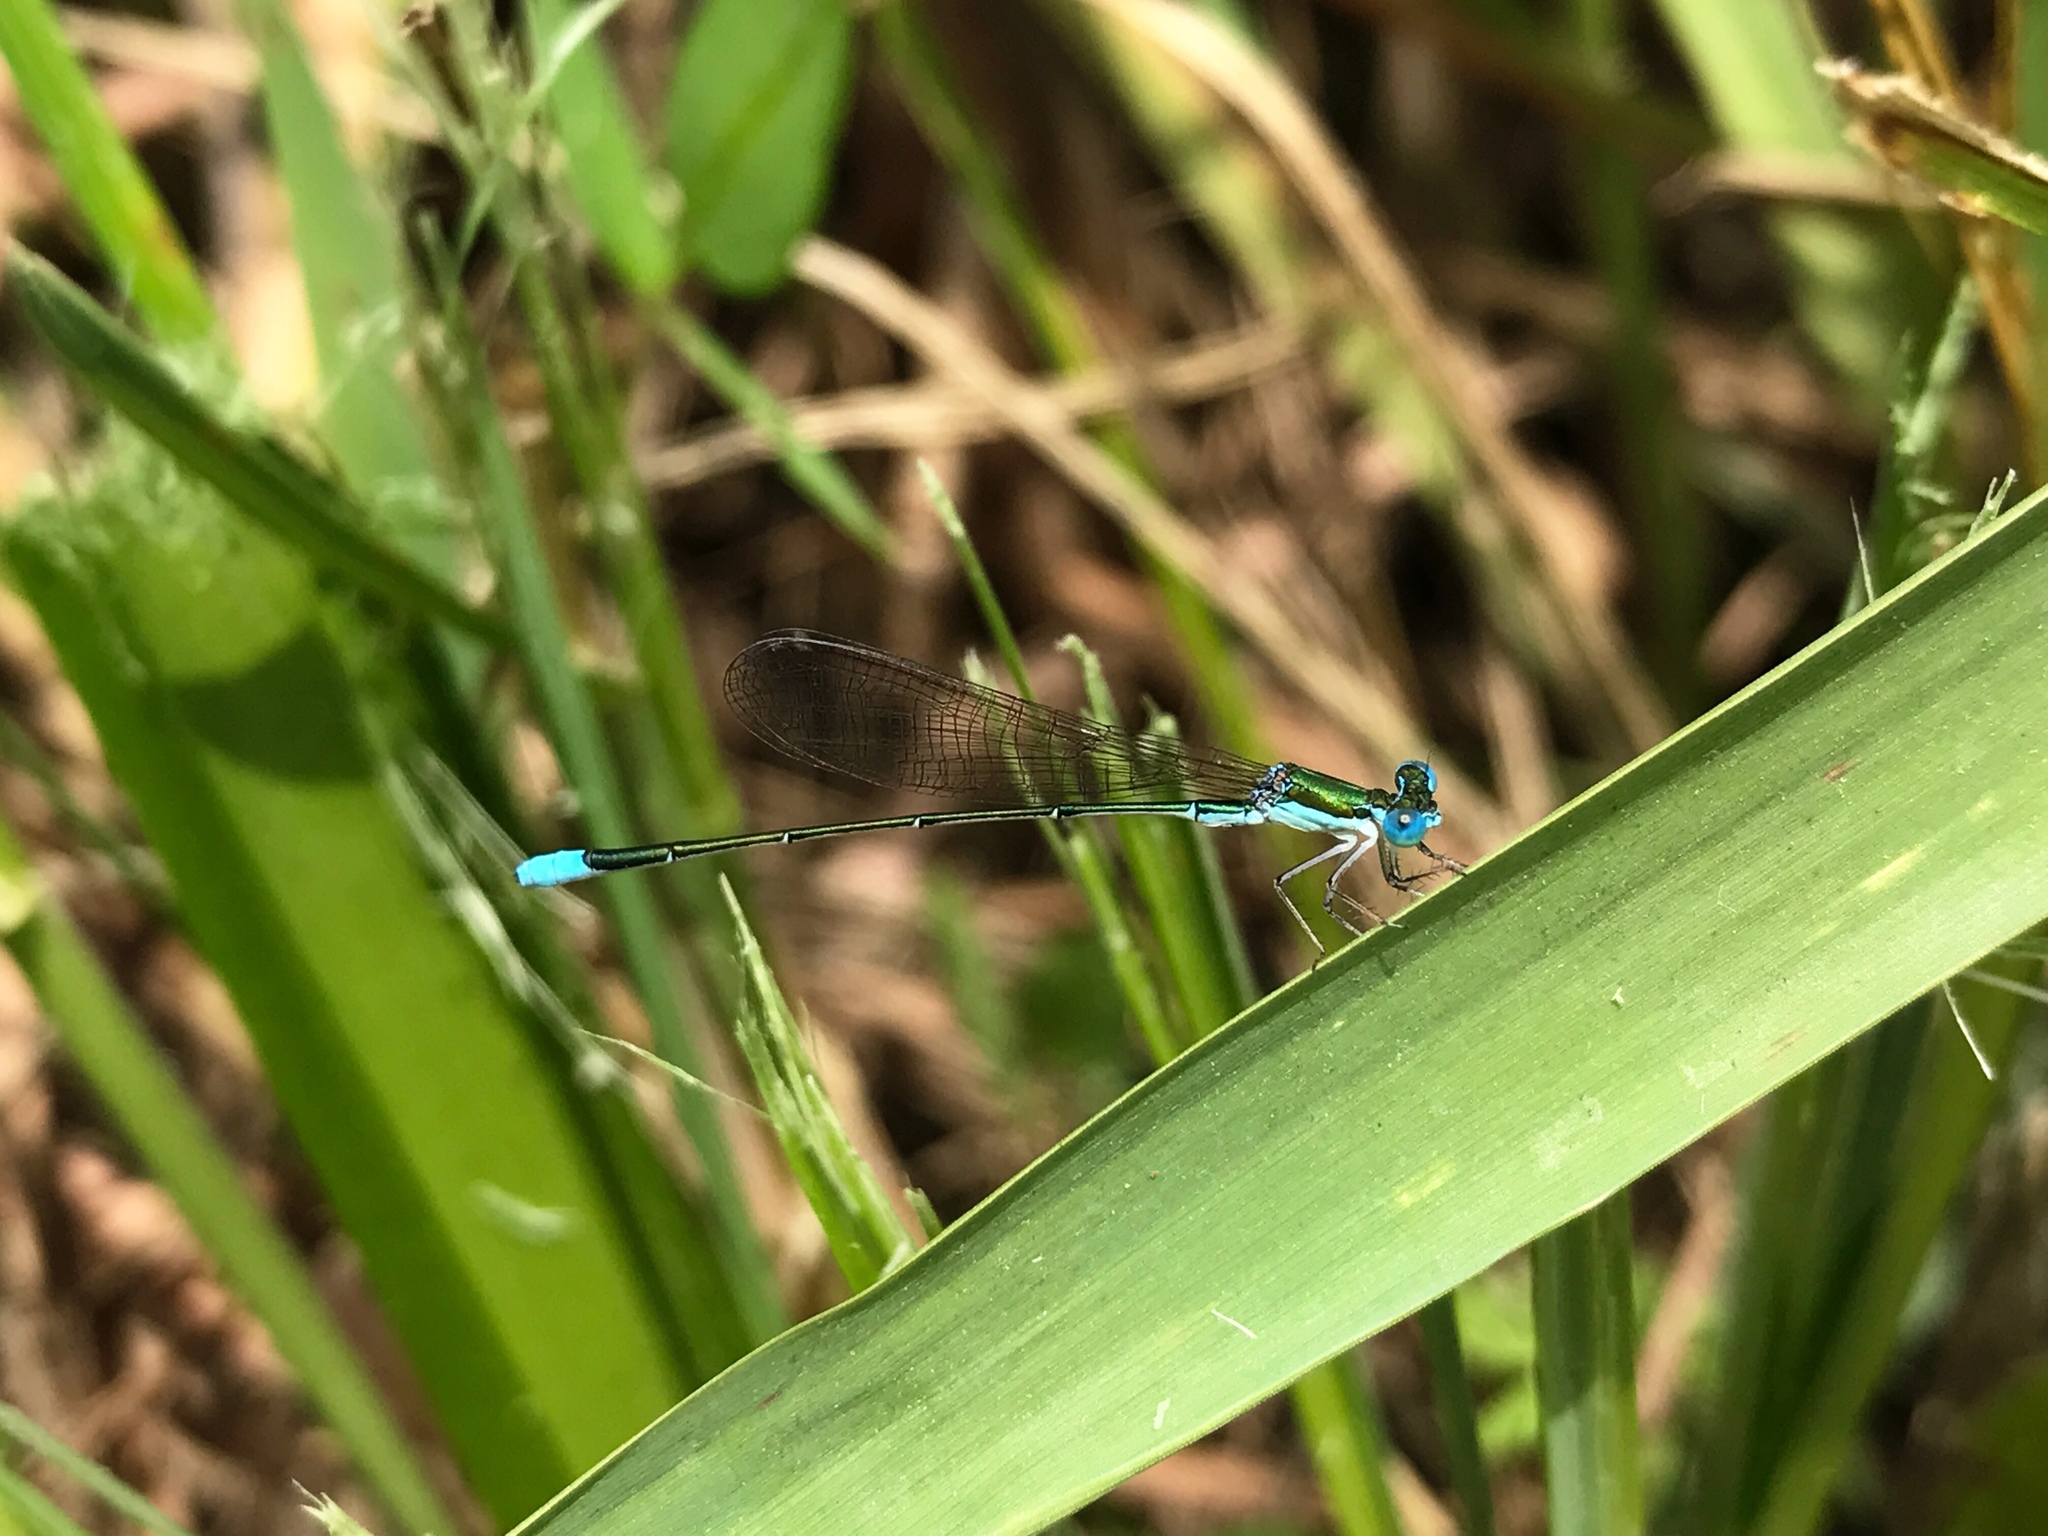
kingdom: Animalia
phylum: Arthropoda
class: Insecta
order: Odonata
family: Coenagrionidae
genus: Nehalennia
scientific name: Nehalennia gracilis
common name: Sphagnum sprite
